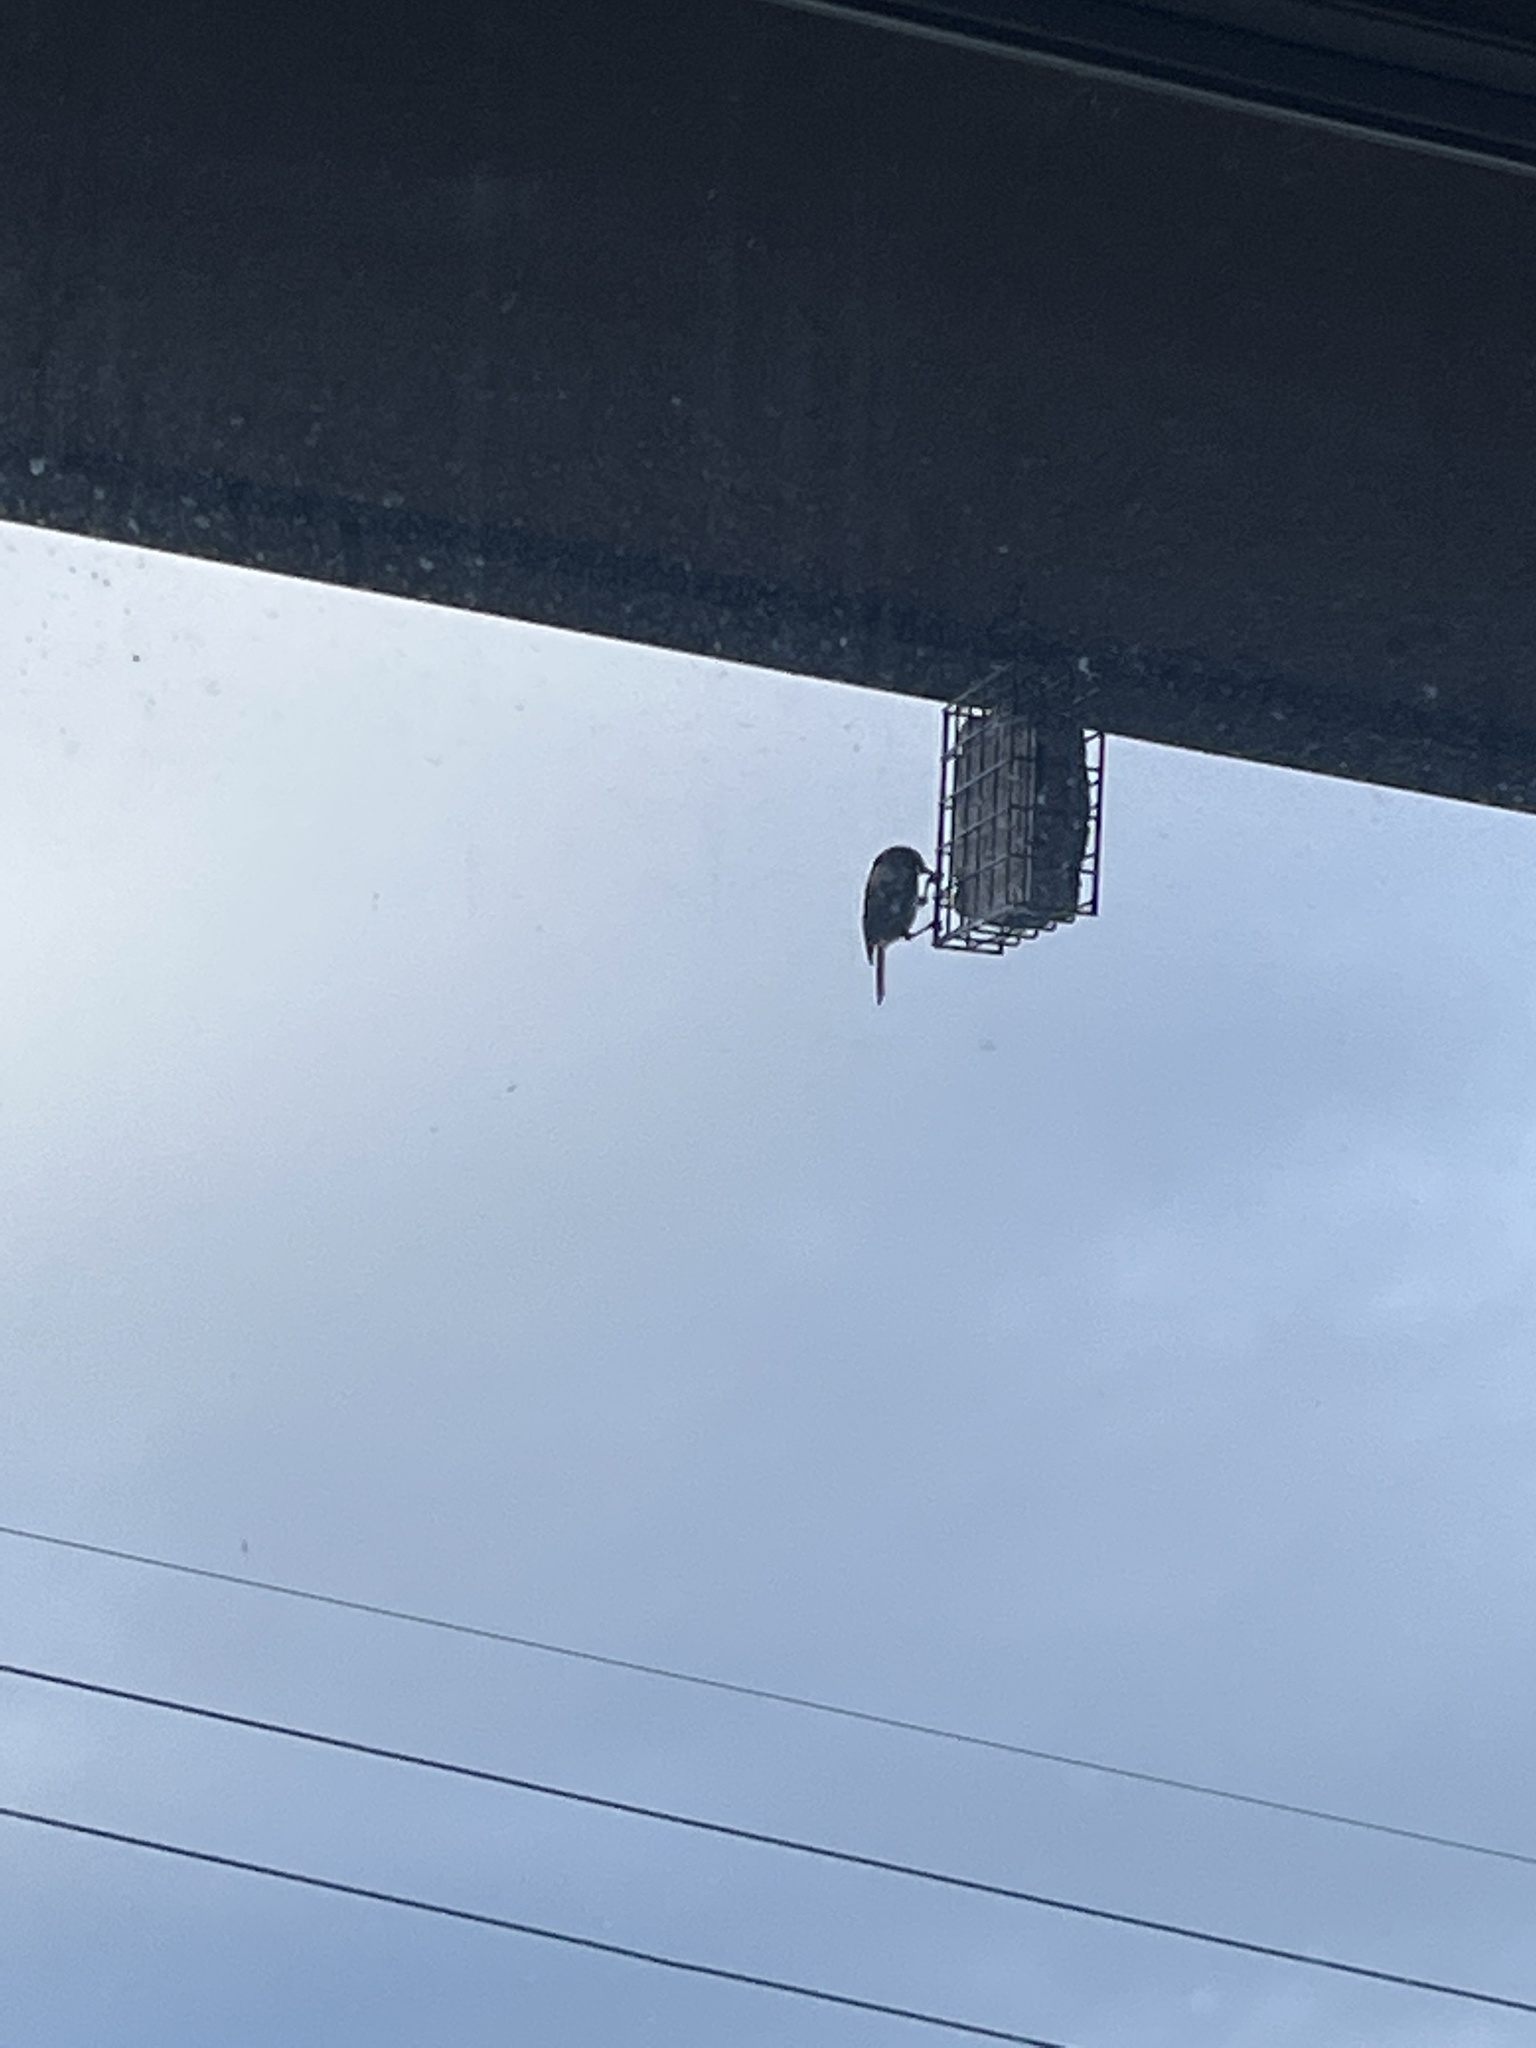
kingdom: Animalia
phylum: Chordata
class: Aves
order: Passeriformes
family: Paridae
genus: Poecile
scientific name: Poecile rufescens
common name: Chestnut-backed chickadee
